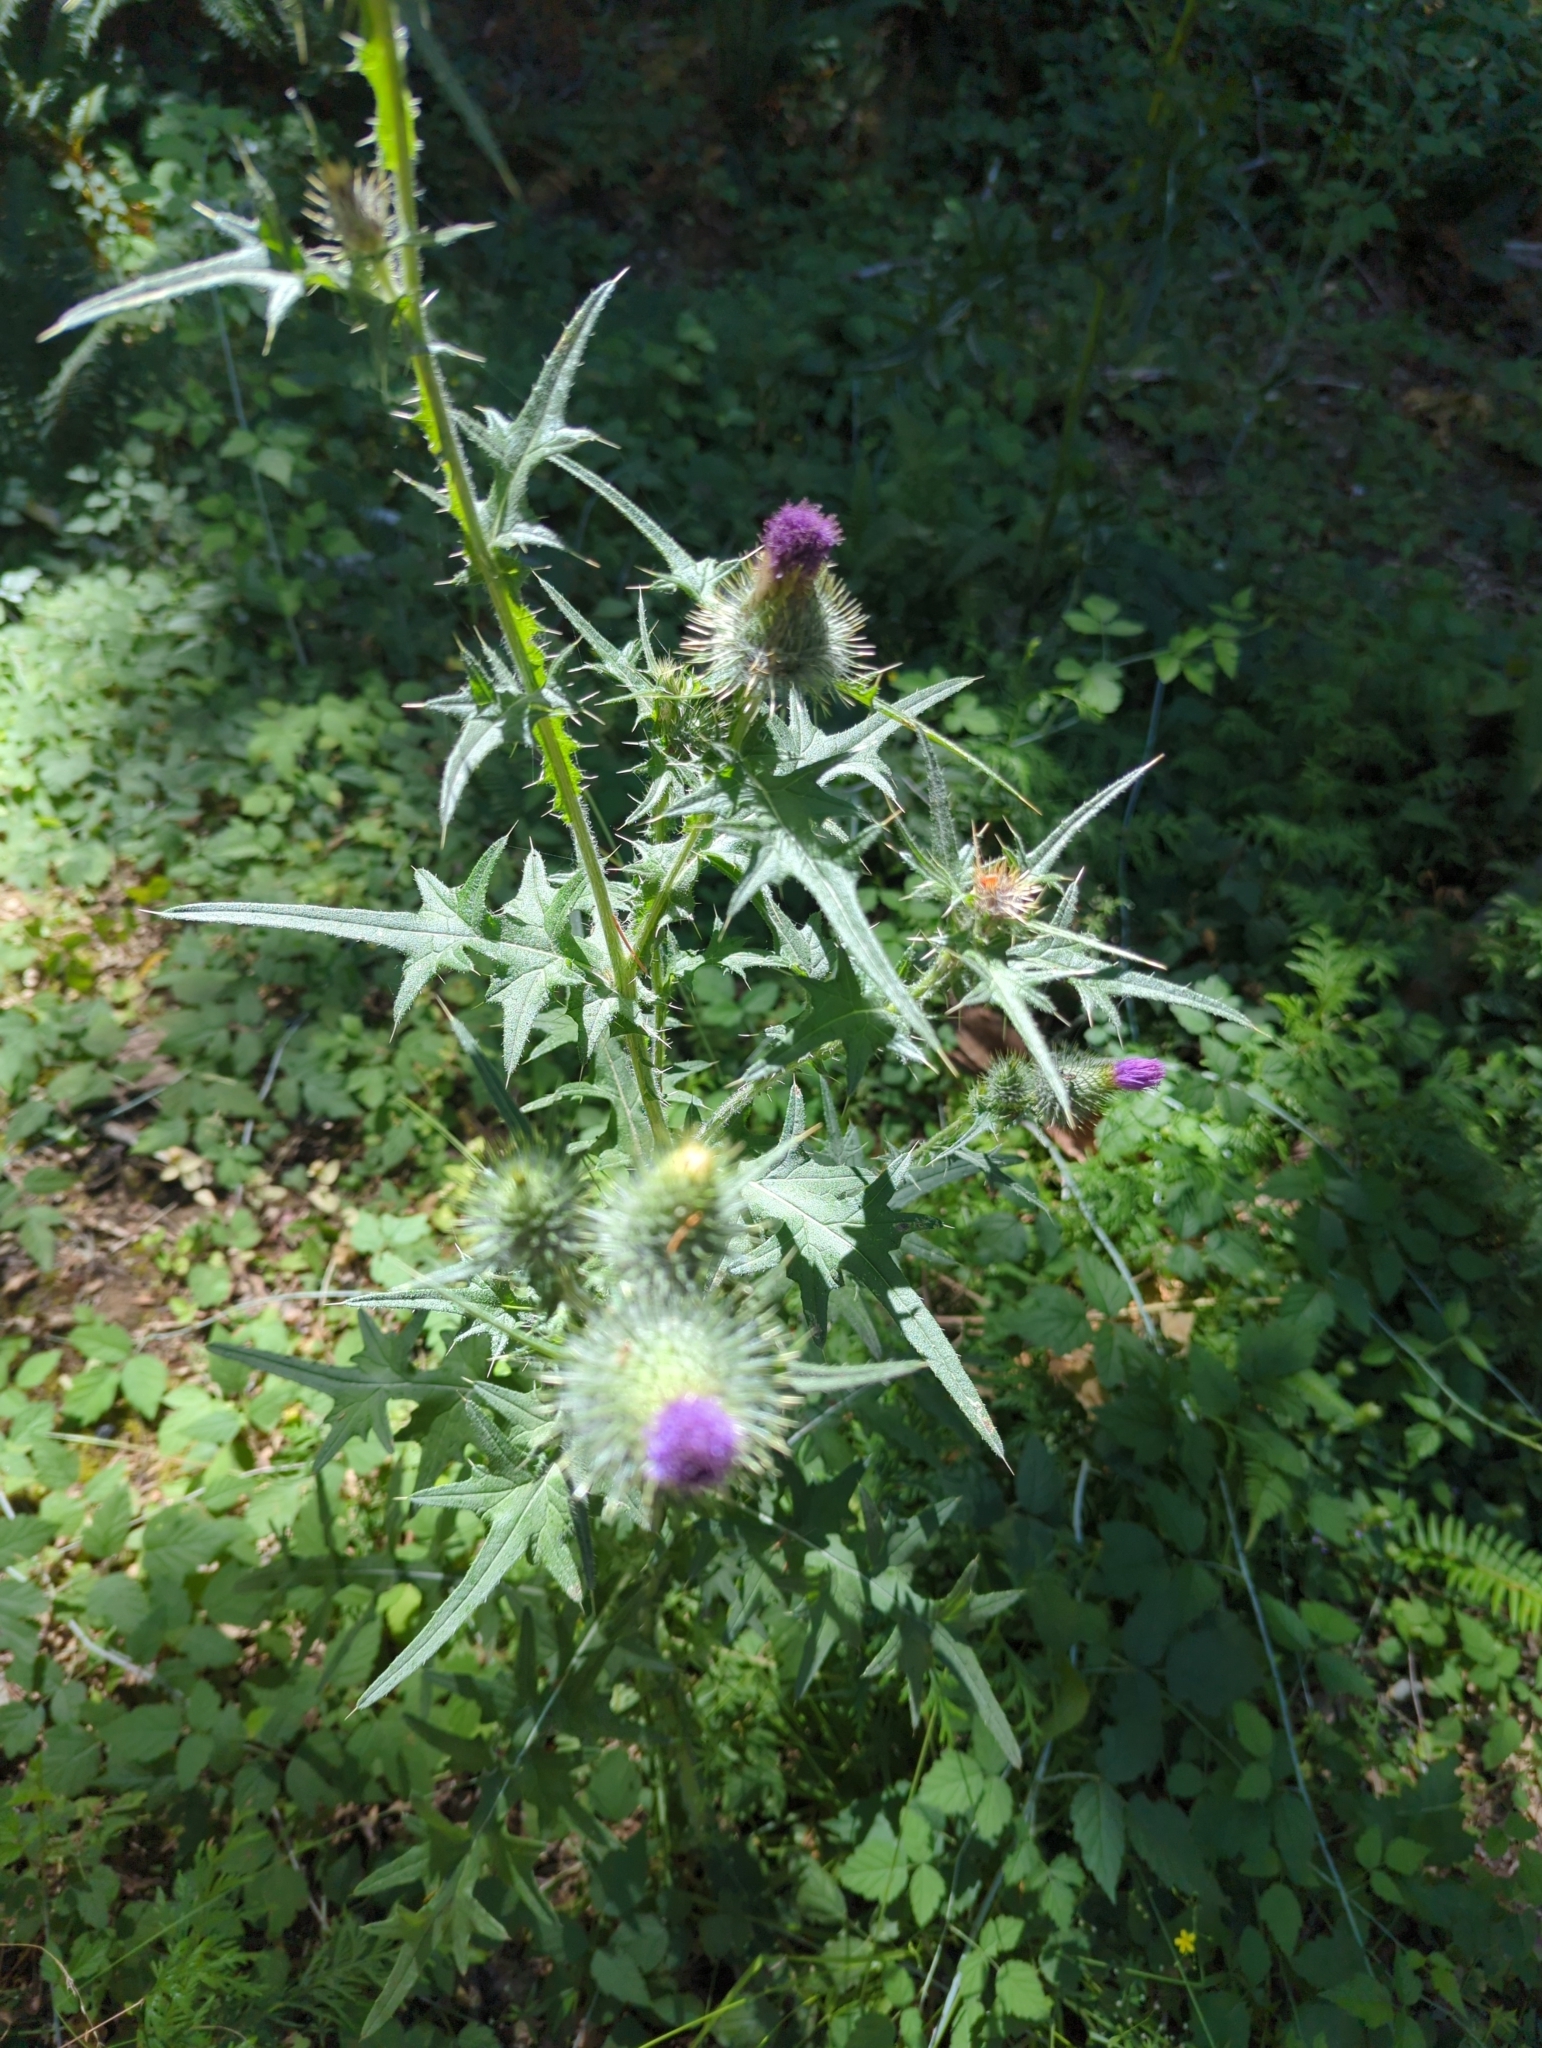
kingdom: Plantae
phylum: Tracheophyta
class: Magnoliopsida
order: Asterales
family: Asteraceae
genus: Cirsium
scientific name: Cirsium vulgare
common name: Bull thistle
